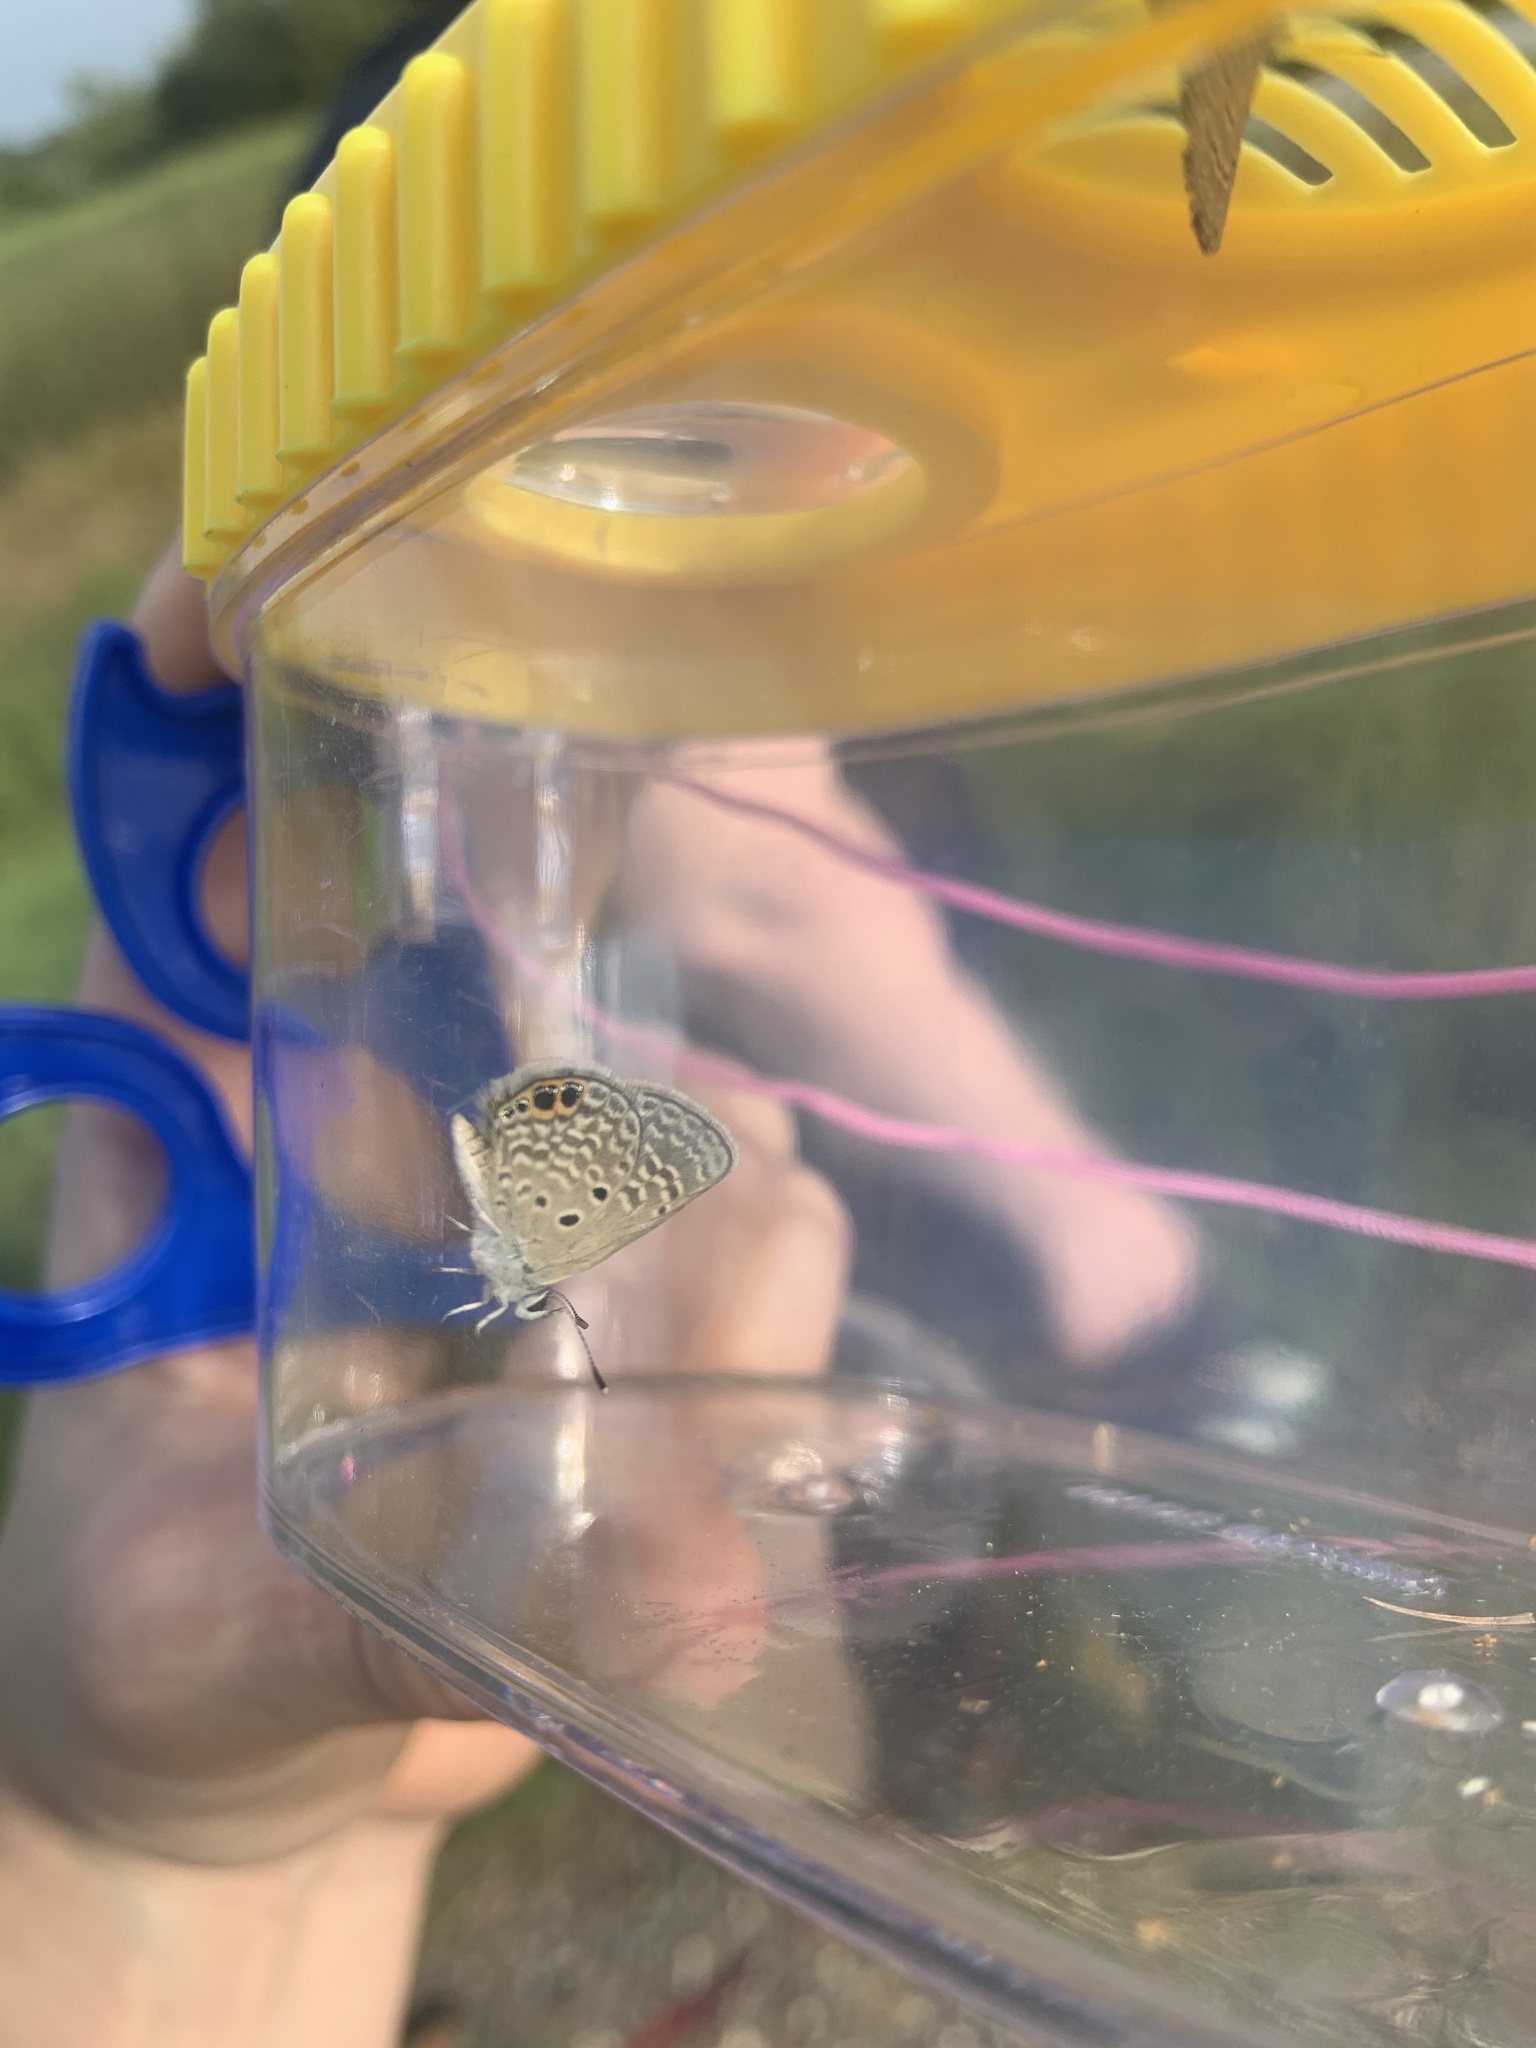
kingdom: Animalia
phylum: Arthropoda
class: Insecta
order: Lepidoptera
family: Lycaenidae
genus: Hemiargus
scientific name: Hemiargus ceraunus
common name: Ceraunus blue
